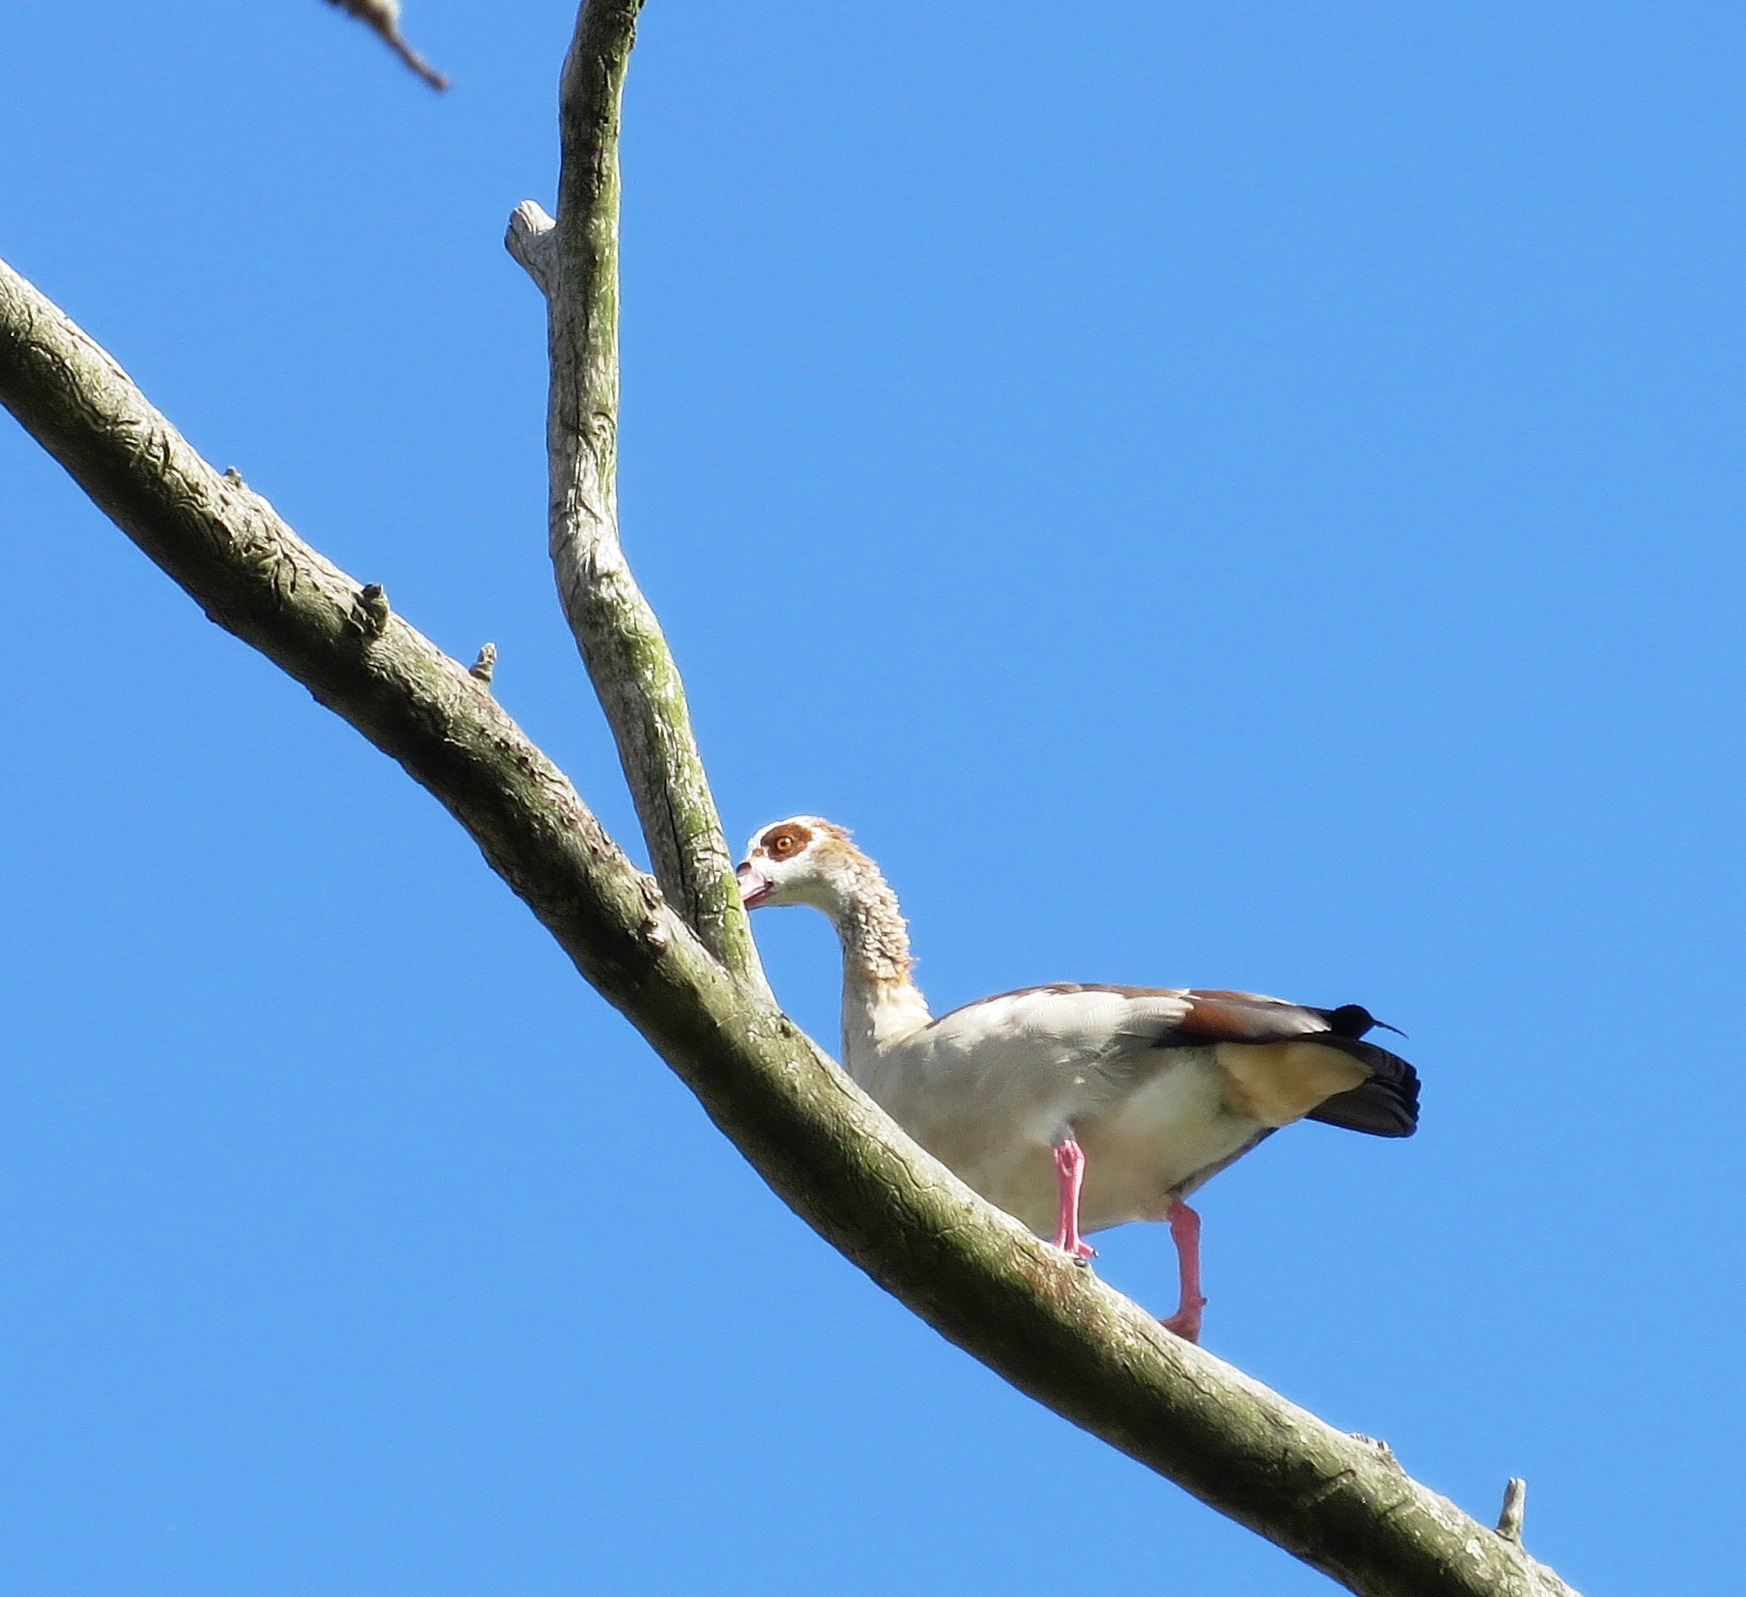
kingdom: Animalia
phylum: Chordata
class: Aves
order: Anseriformes
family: Anatidae
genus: Alopochen
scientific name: Alopochen aegyptiaca
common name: Egyptian goose
